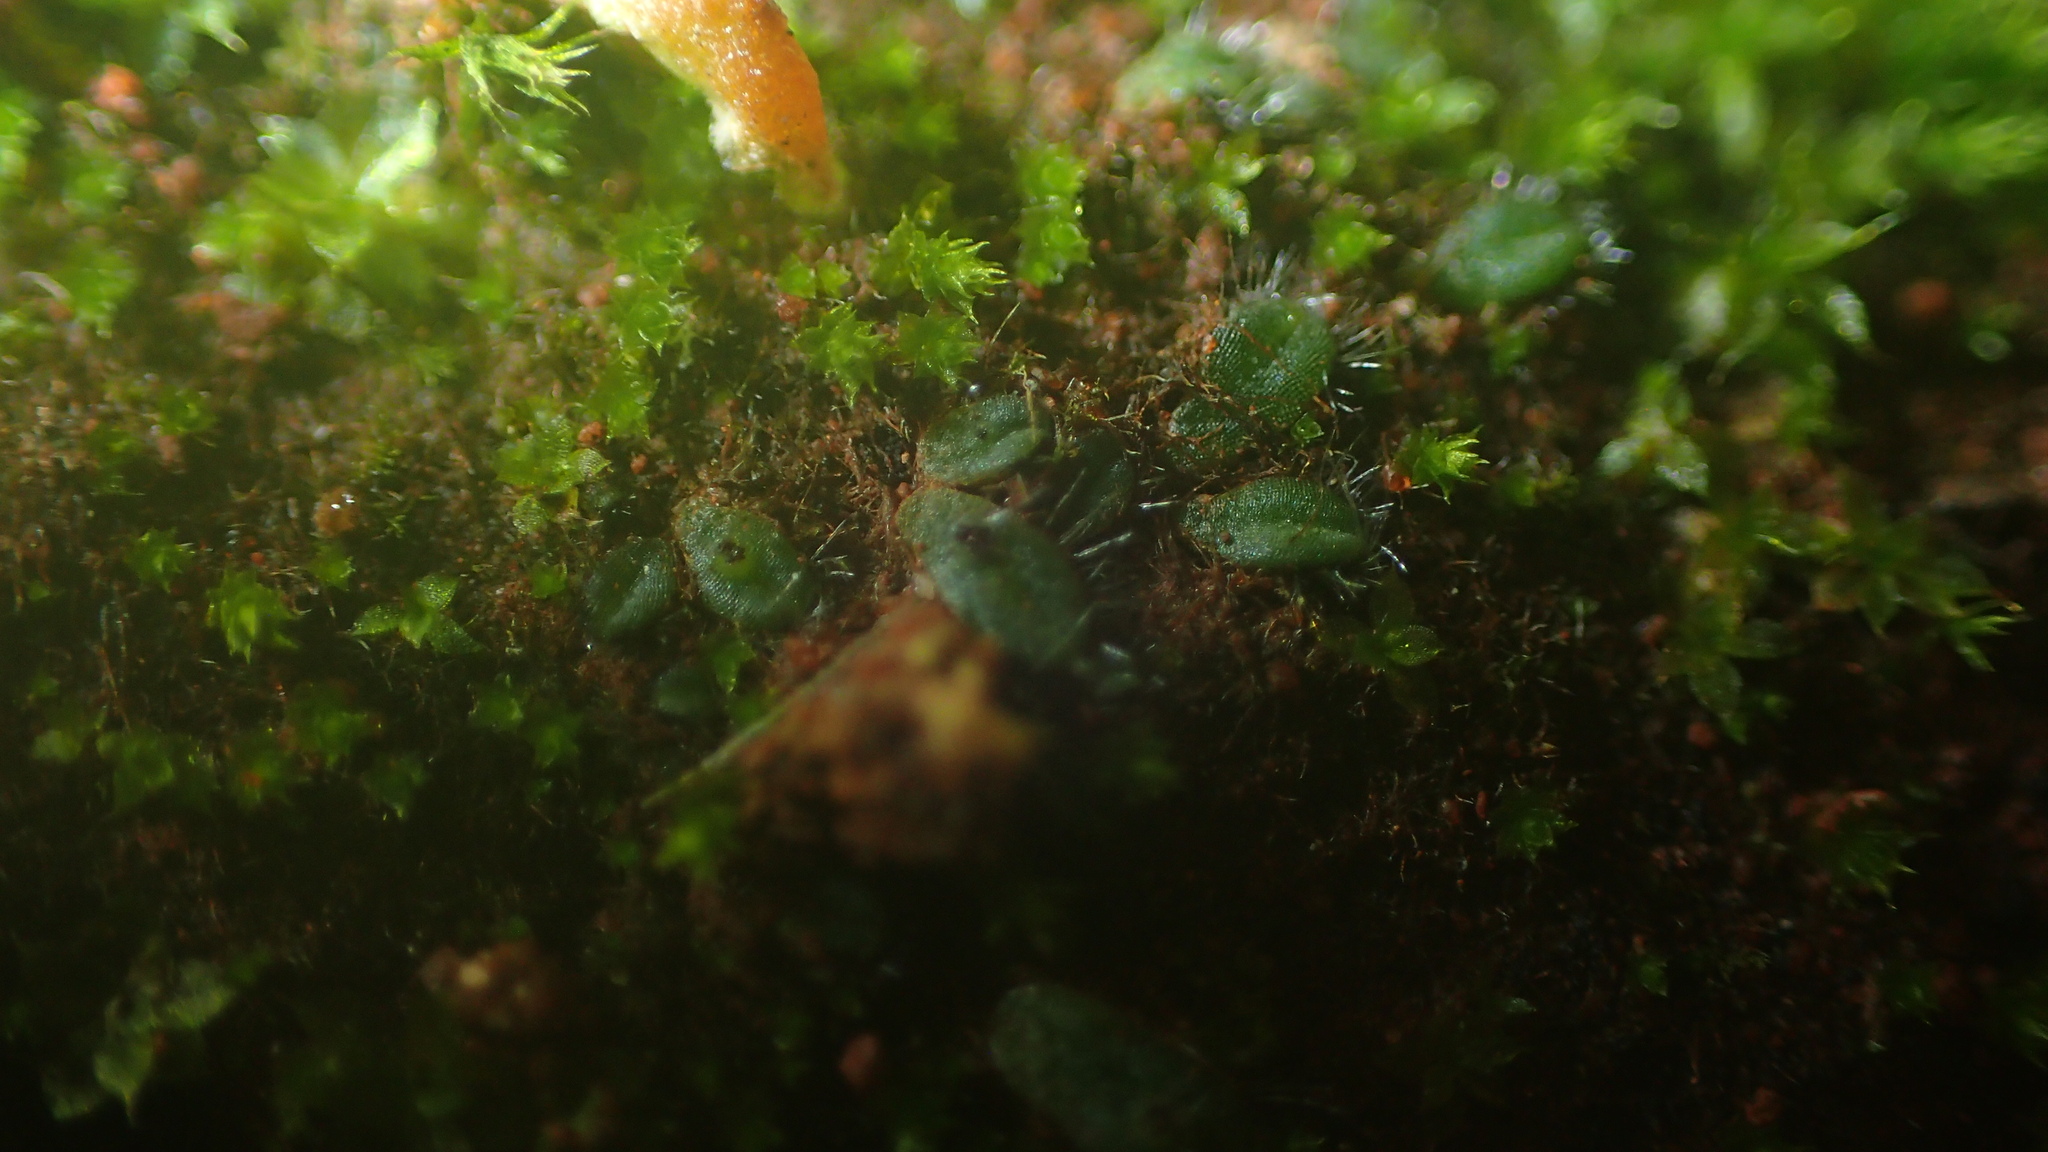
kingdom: Plantae
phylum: Marchantiophyta
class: Marchantiopsida
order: Marchantiales
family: Ricciaceae
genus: Riccia
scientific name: Riccia crinita
